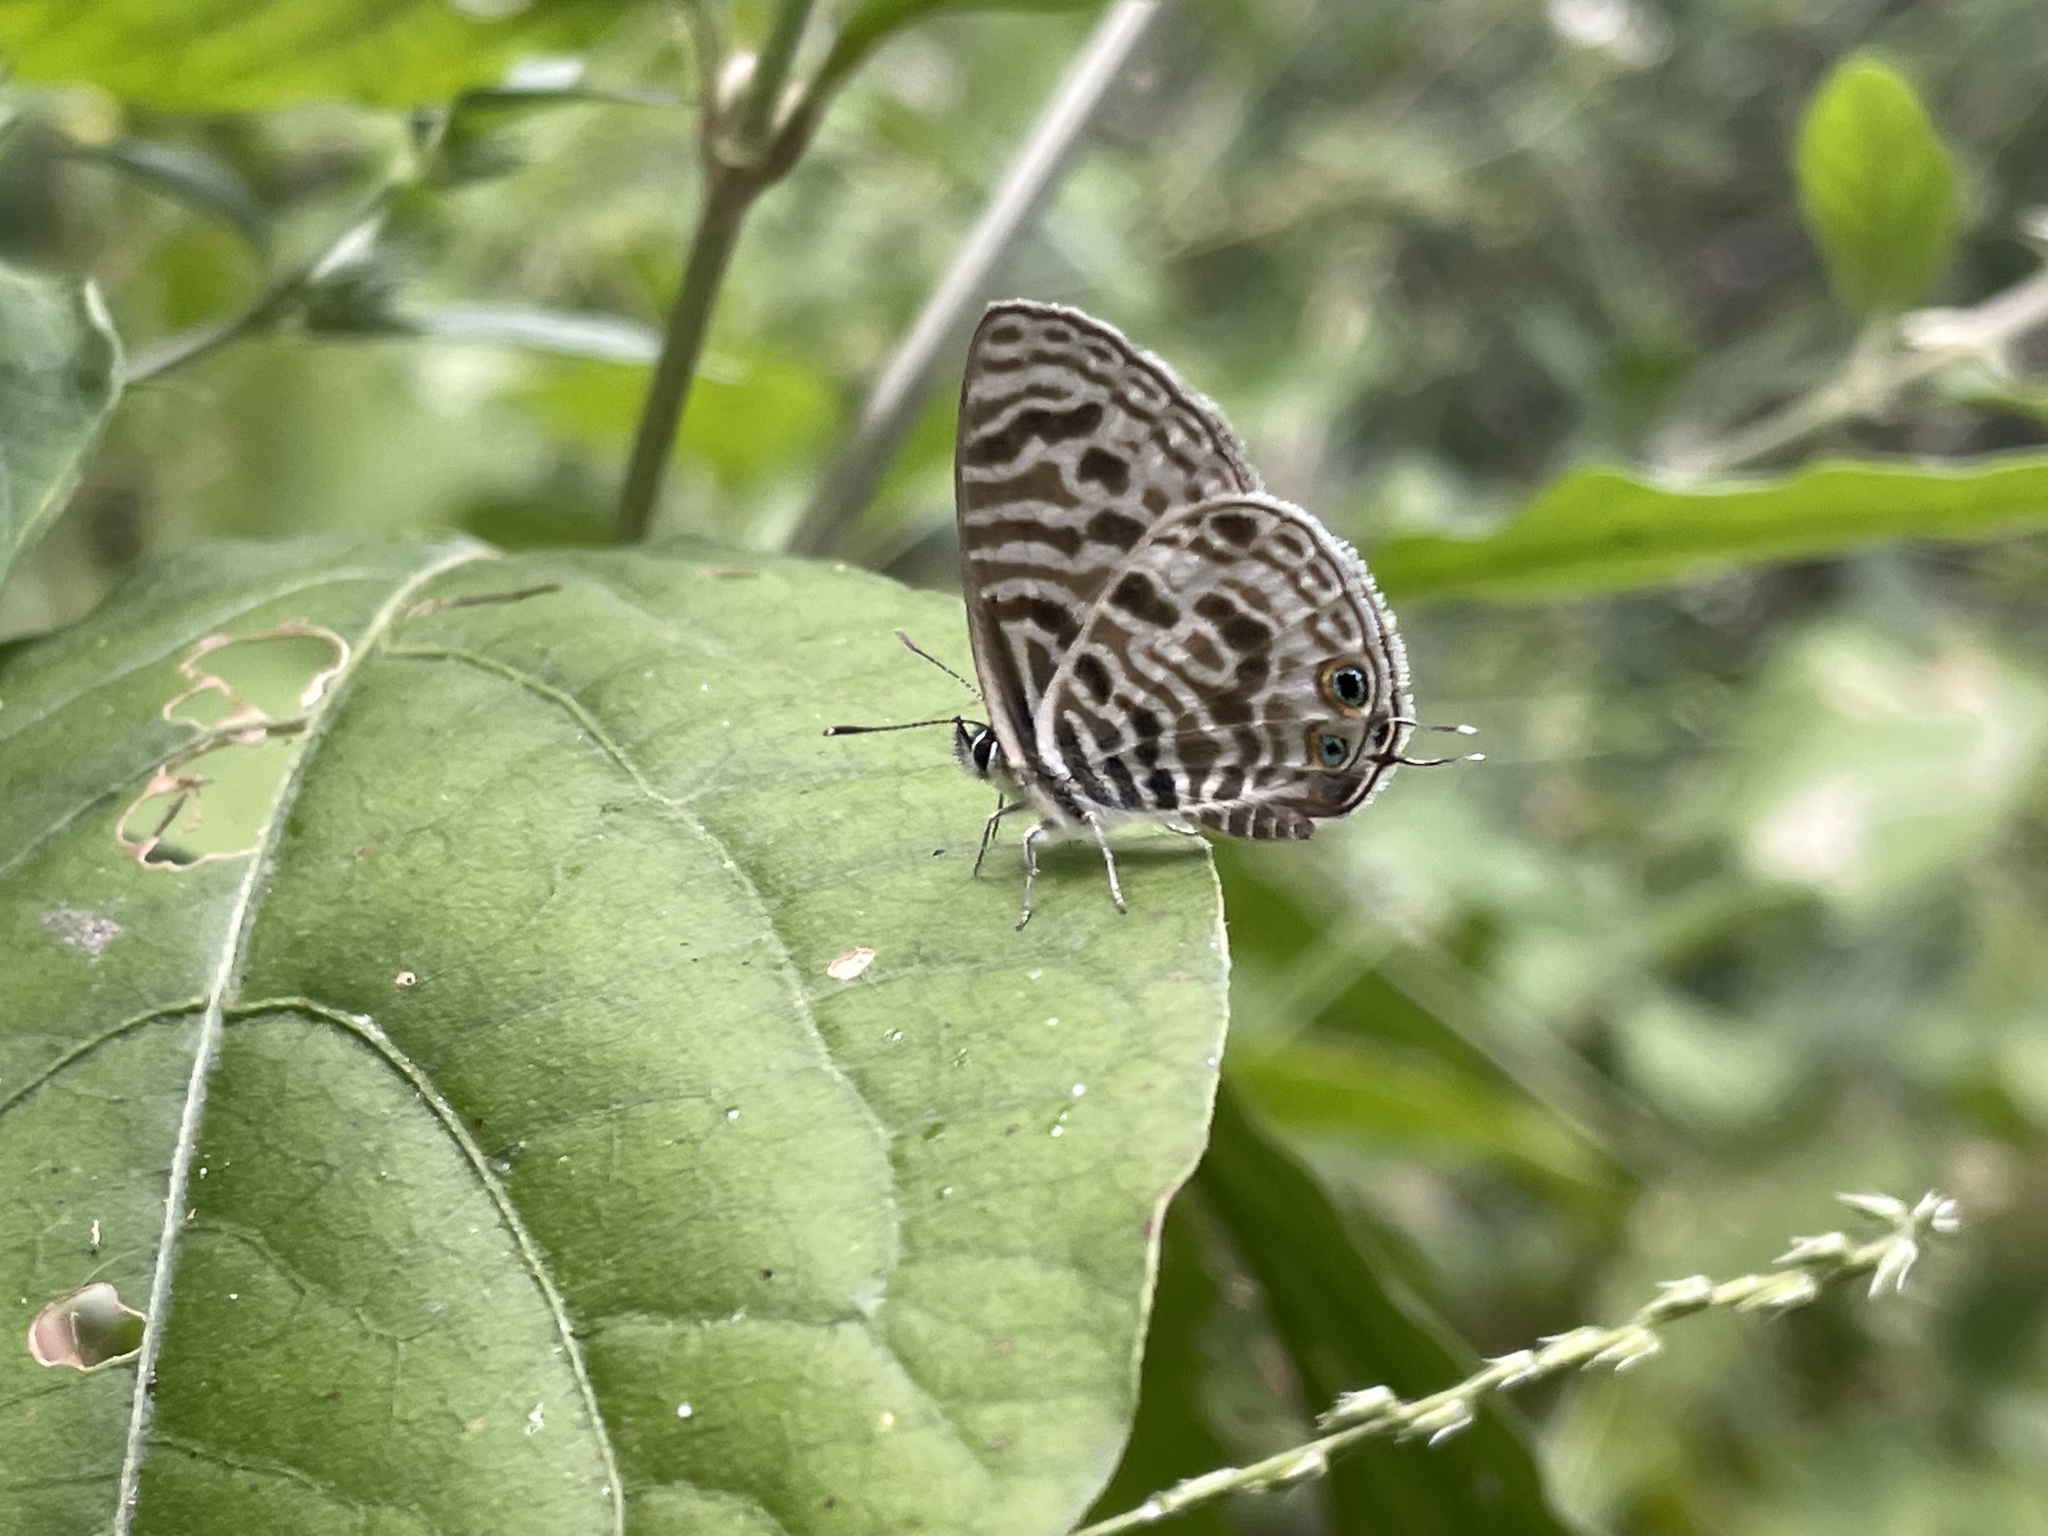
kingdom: Animalia
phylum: Arthropoda
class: Insecta
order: Lepidoptera
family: Lycaenidae
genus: Leptotes
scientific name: Leptotes
